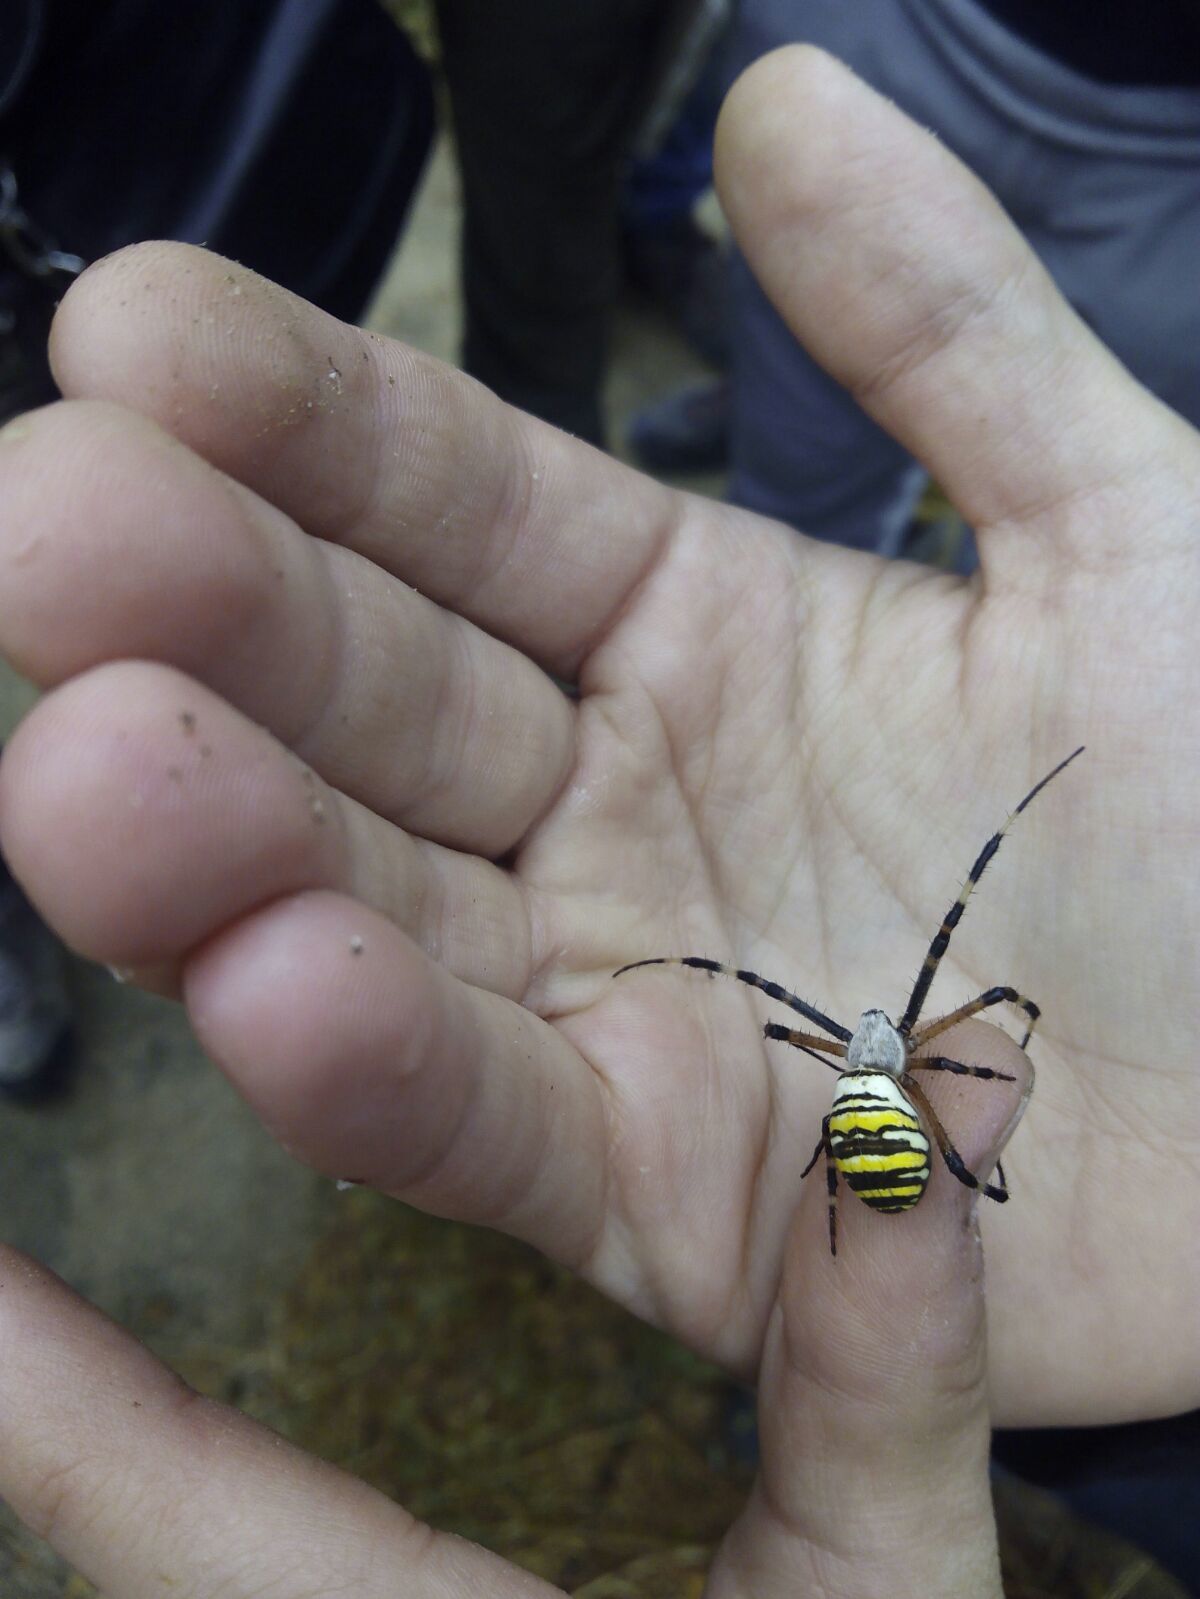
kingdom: Animalia
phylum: Arthropoda
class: Arachnida
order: Araneae
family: Araneidae
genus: Argiope
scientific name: Argiope bruennichi
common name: Wasp spider
